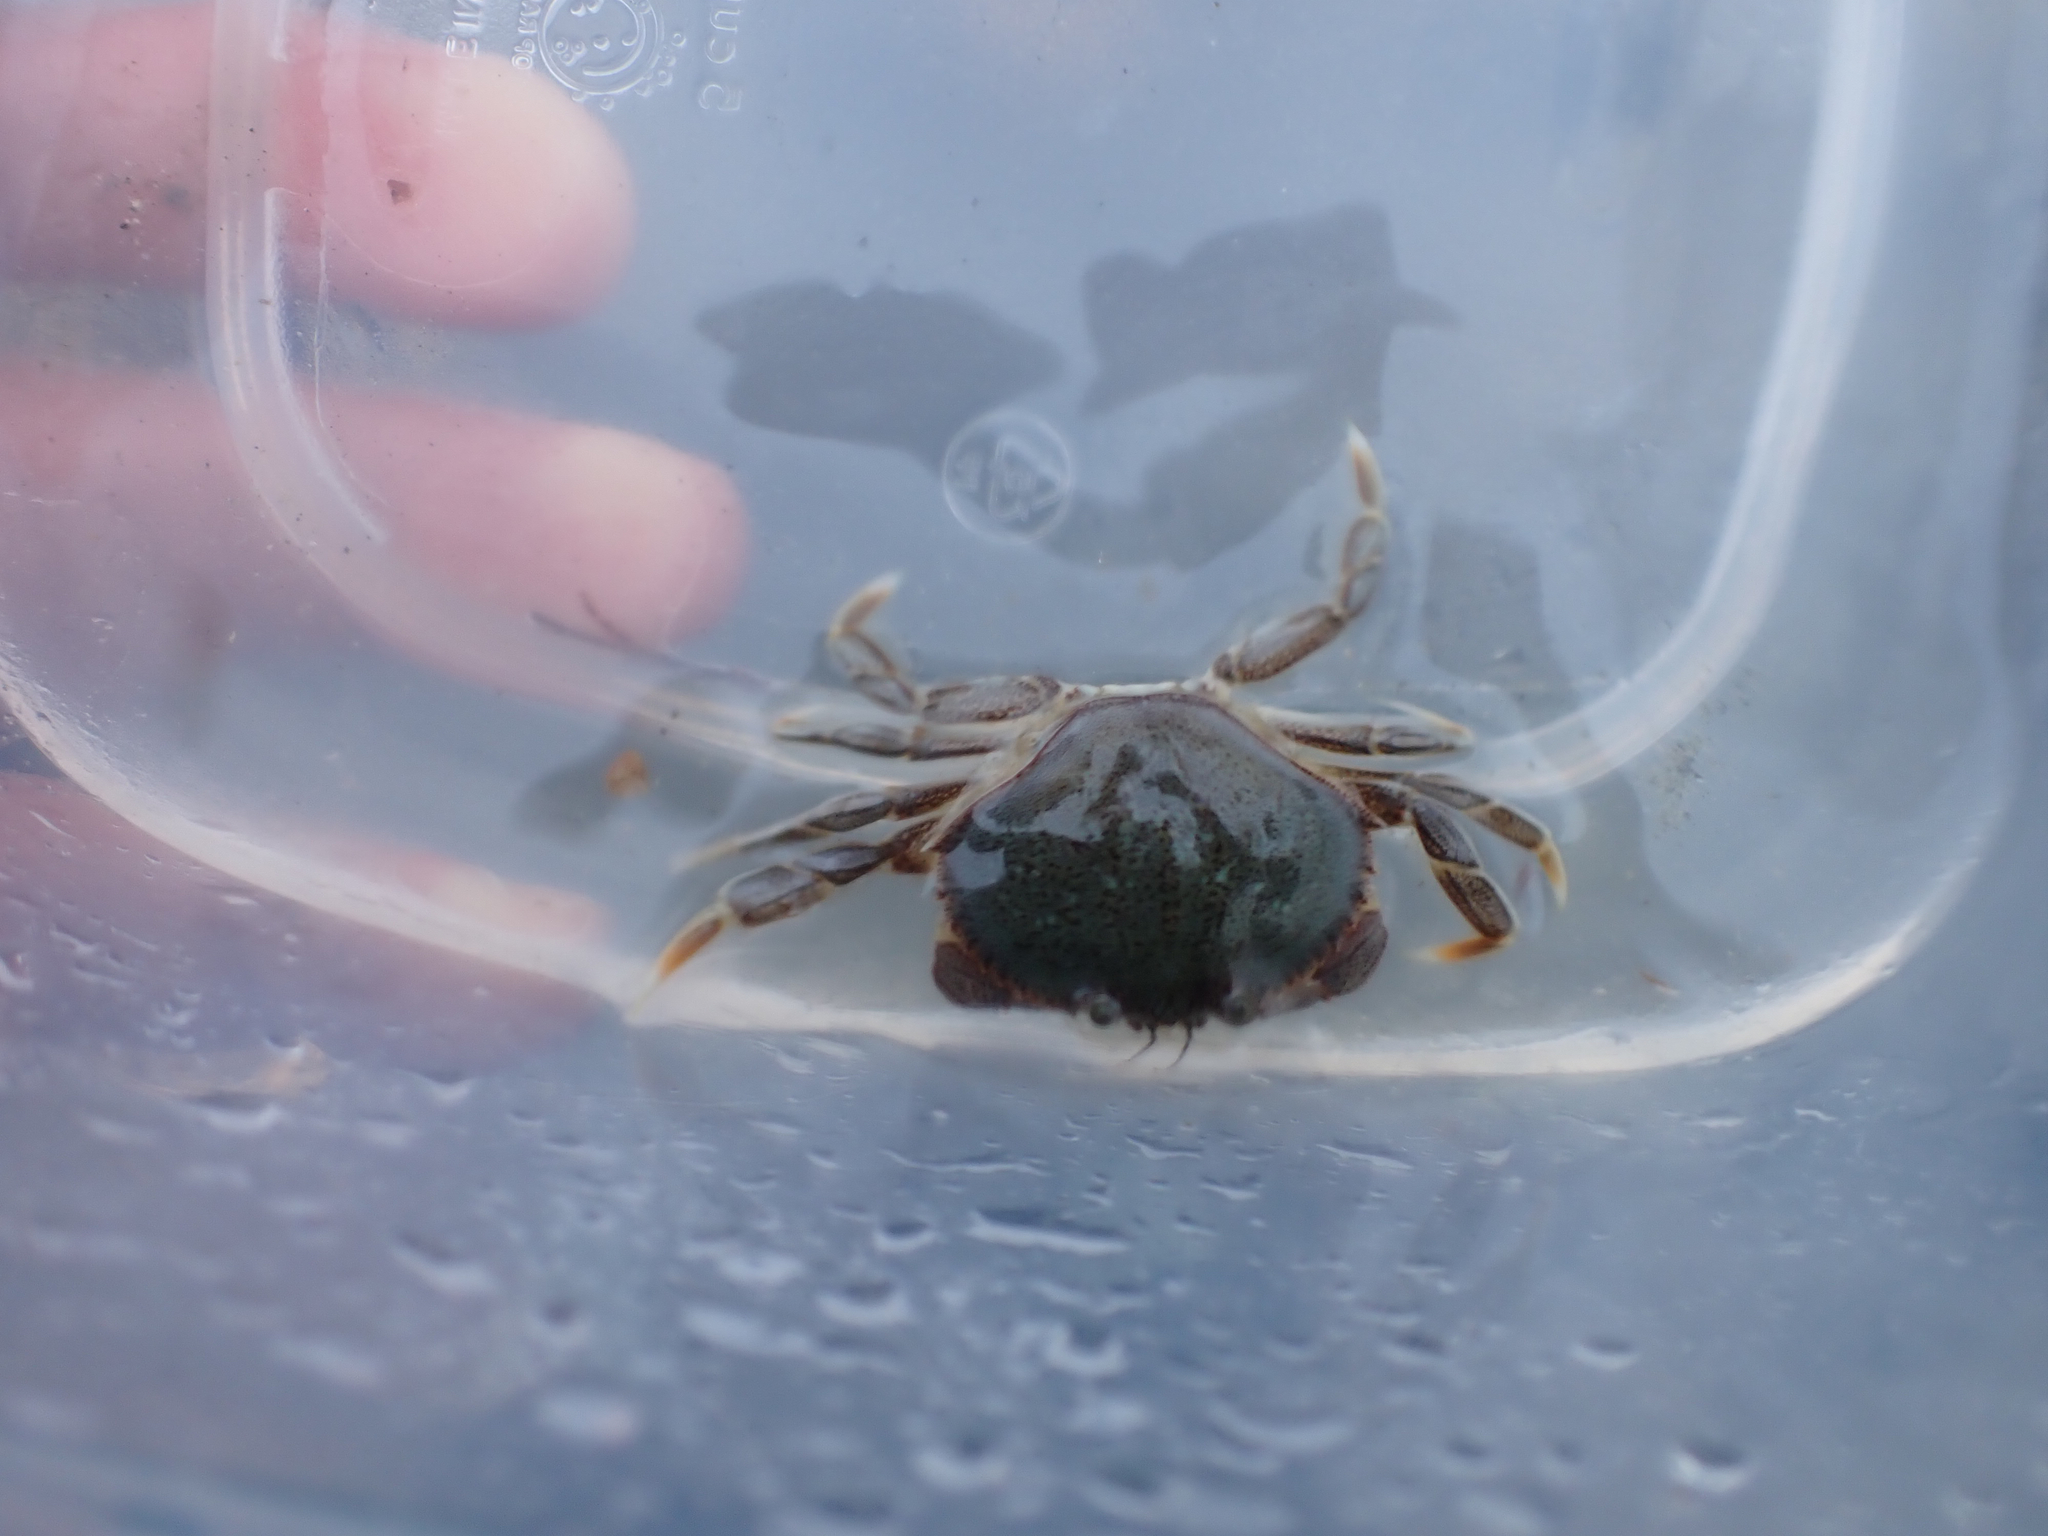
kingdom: Animalia
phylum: Arthropoda
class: Malacostraca
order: Decapoda
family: Cancridae
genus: Metacarcinus
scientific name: Metacarcinus magister
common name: Californian crab
